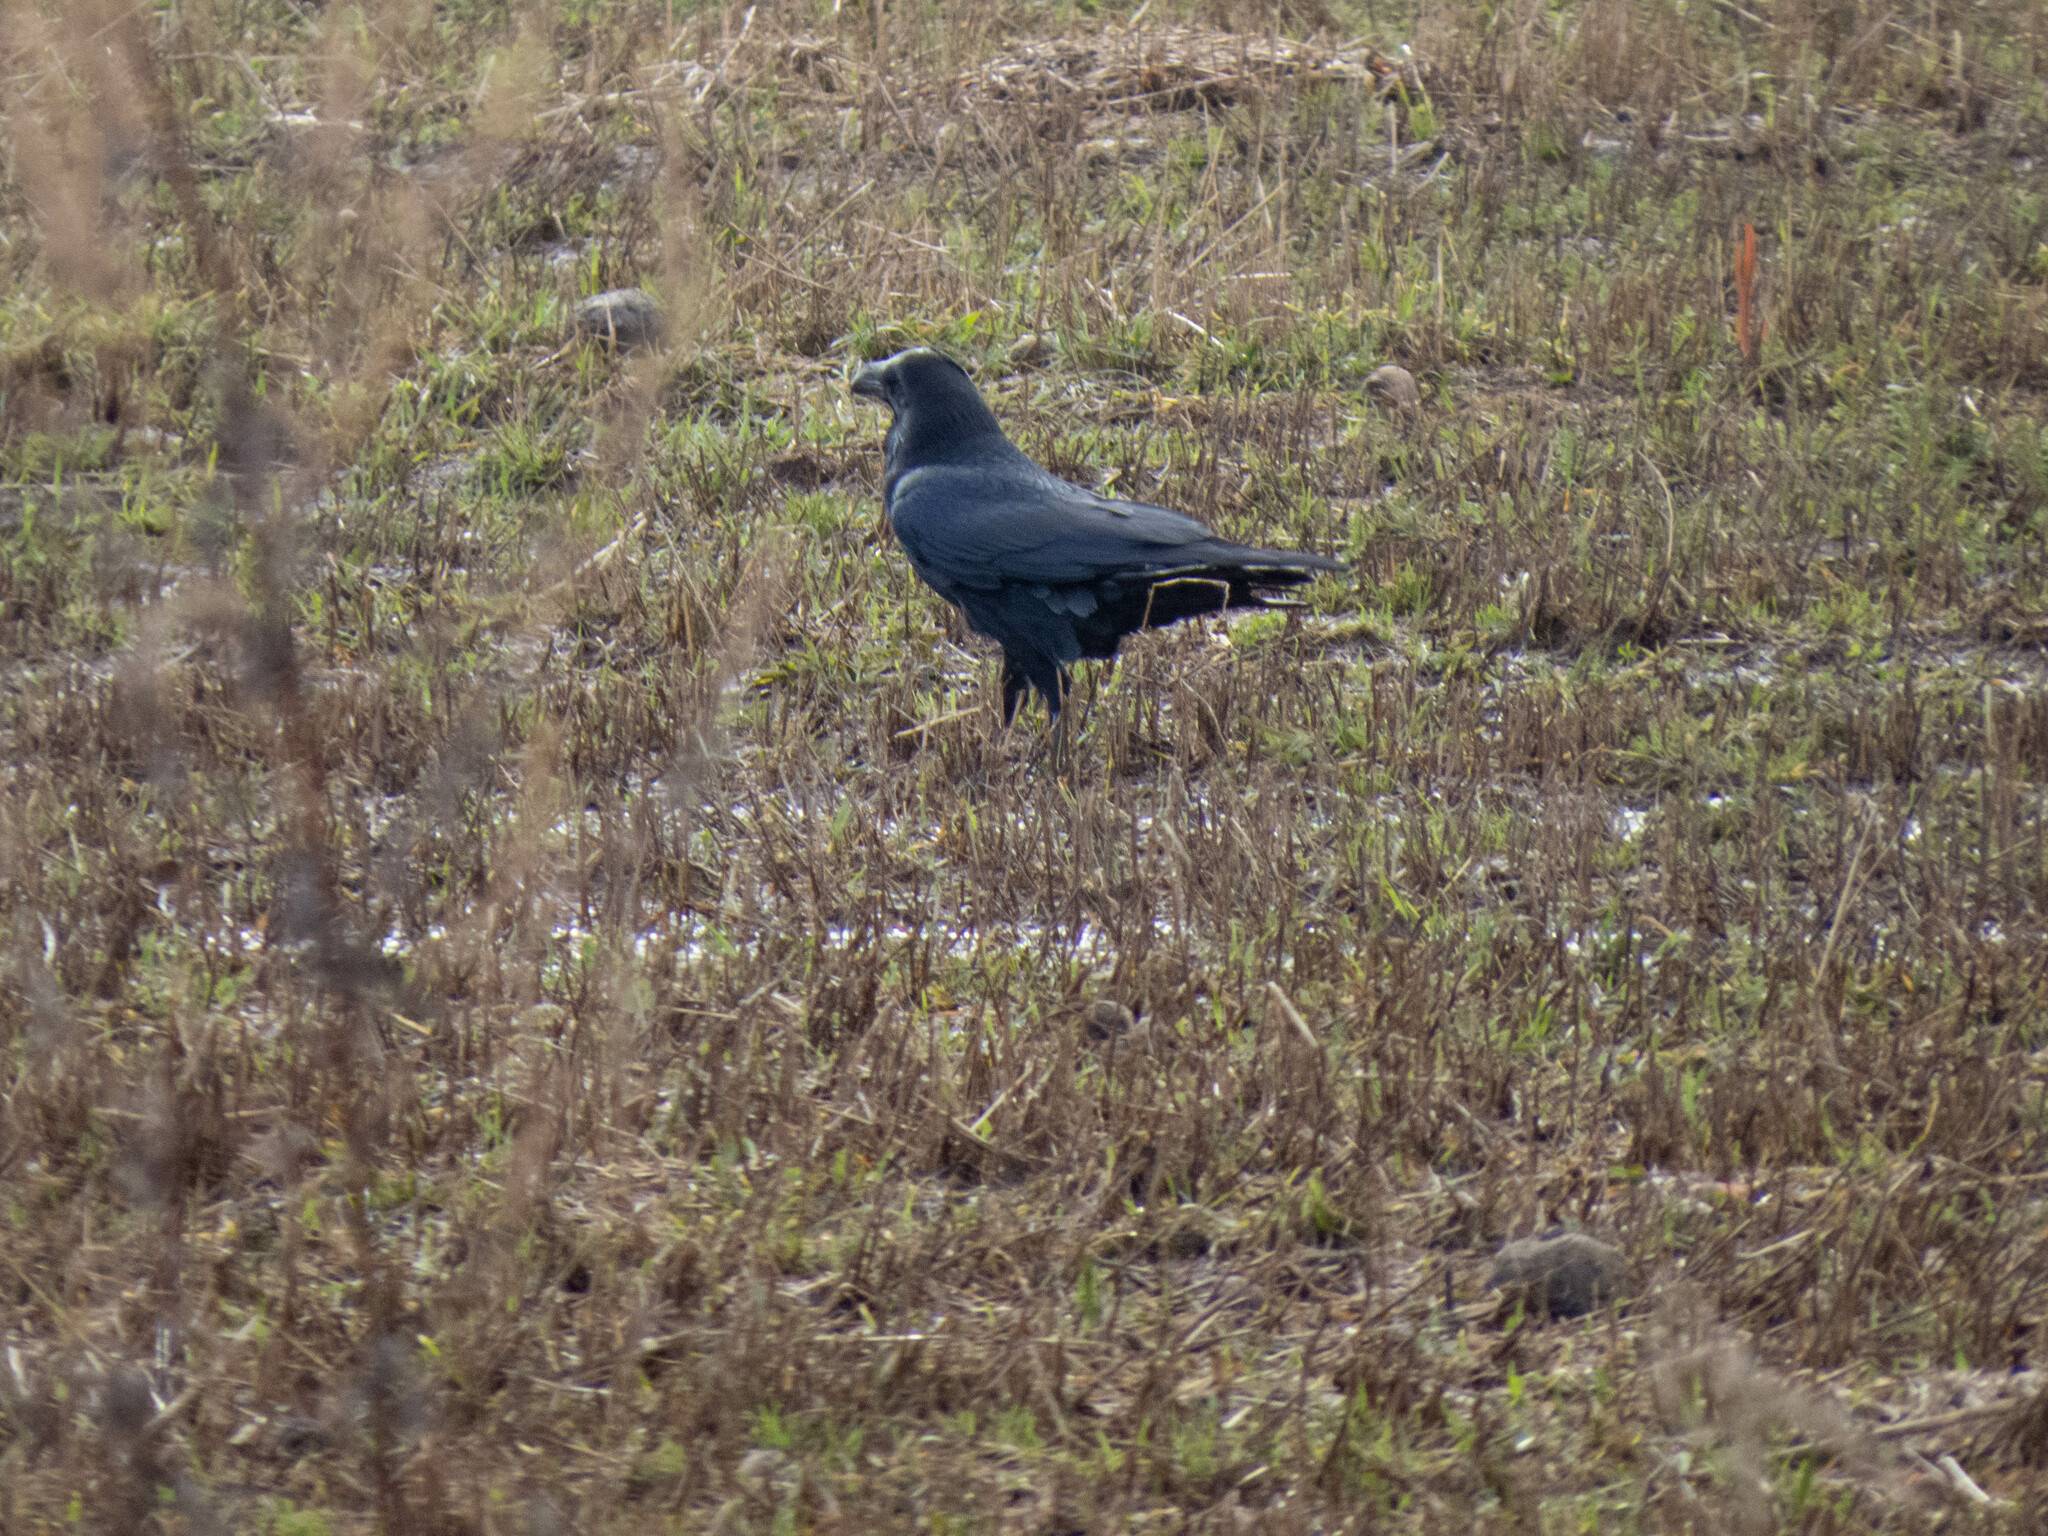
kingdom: Animalia
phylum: Chordata
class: Aves
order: Passeriformes
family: Corvidae
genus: Corvus
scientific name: Corvus corax
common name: Common raven
